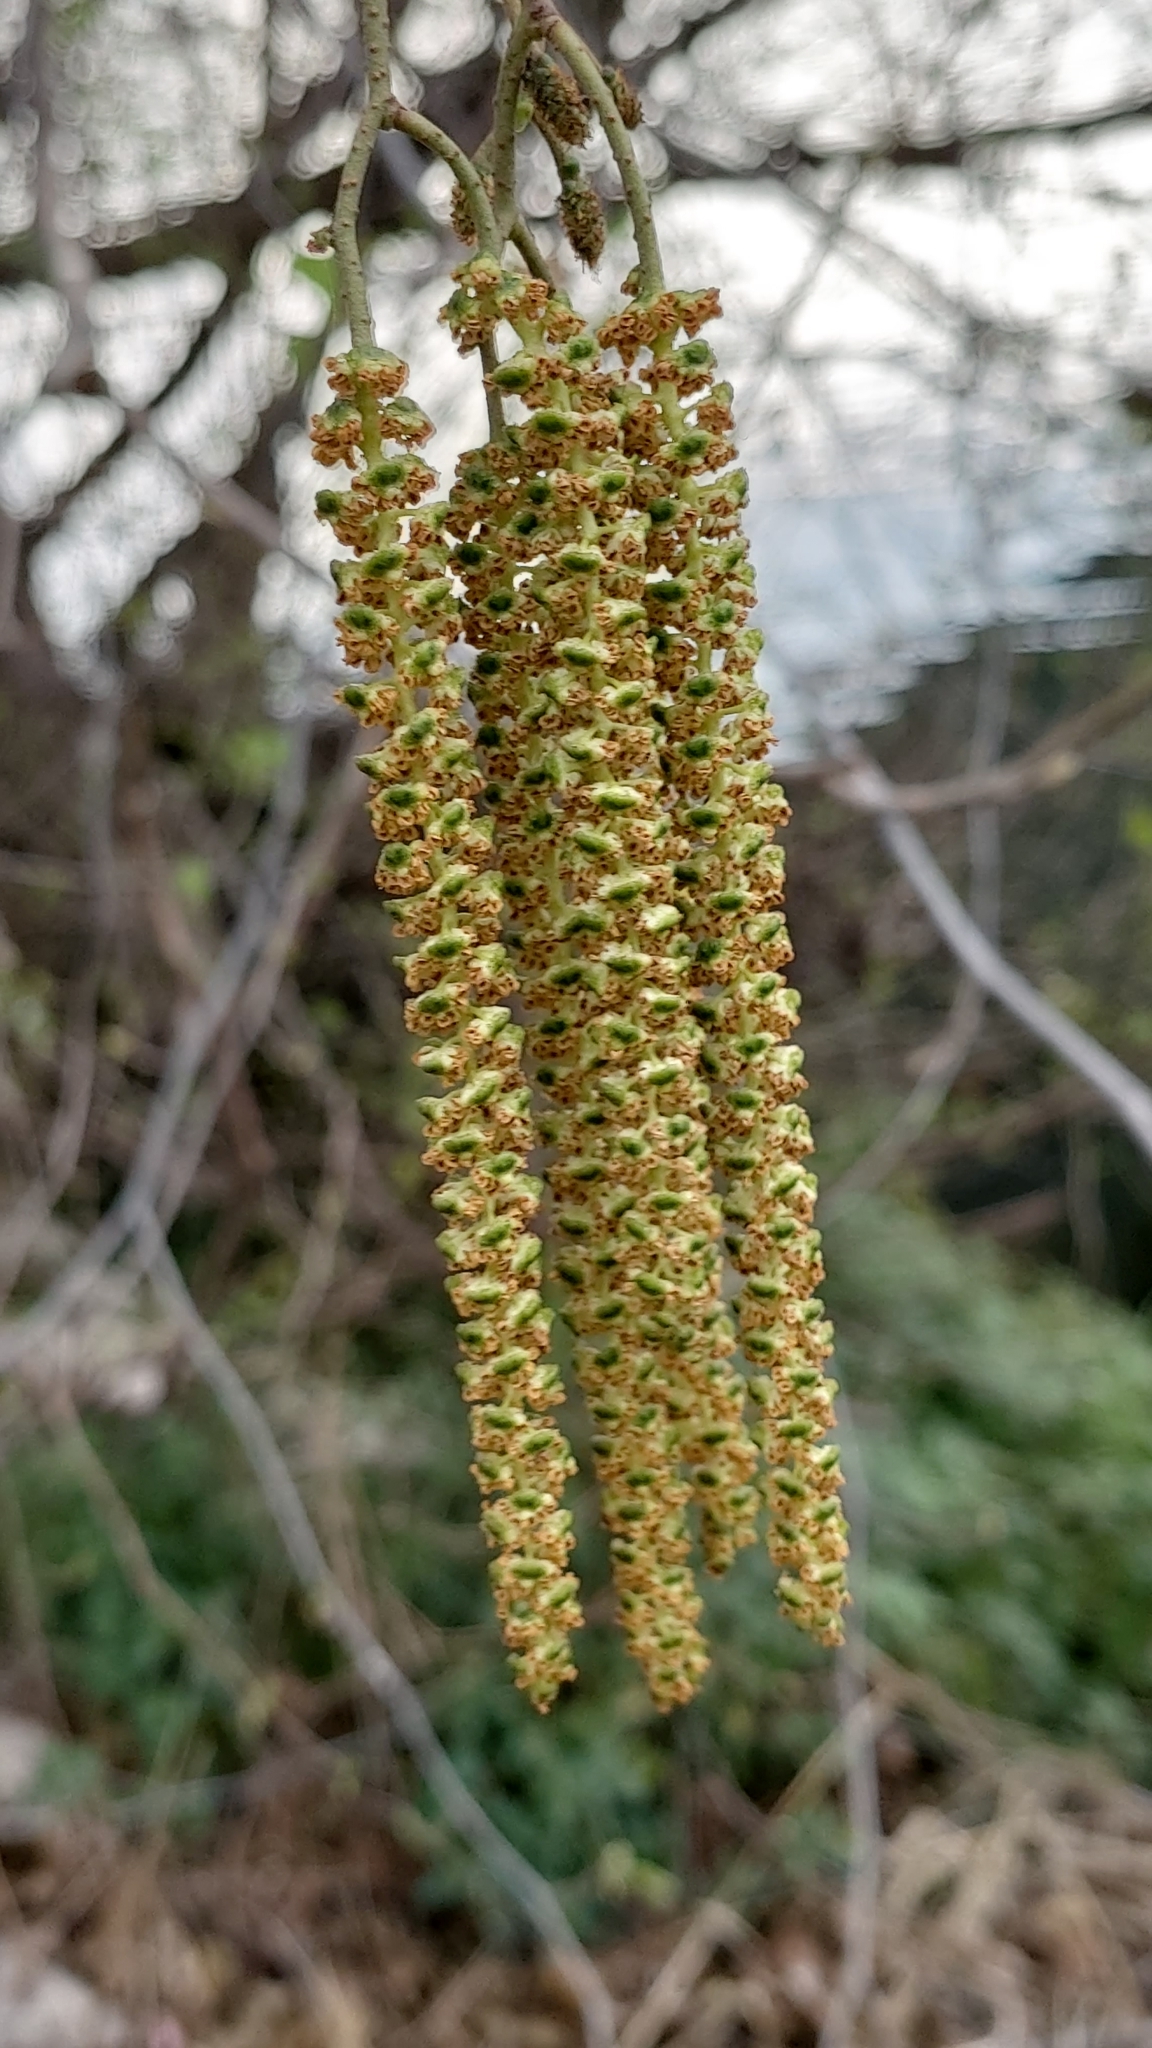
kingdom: Plantae
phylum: Tracheophyta
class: Magnoliopsida
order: Fagales
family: Betulaceae
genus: Alnus
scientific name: Alnus lusitanica
